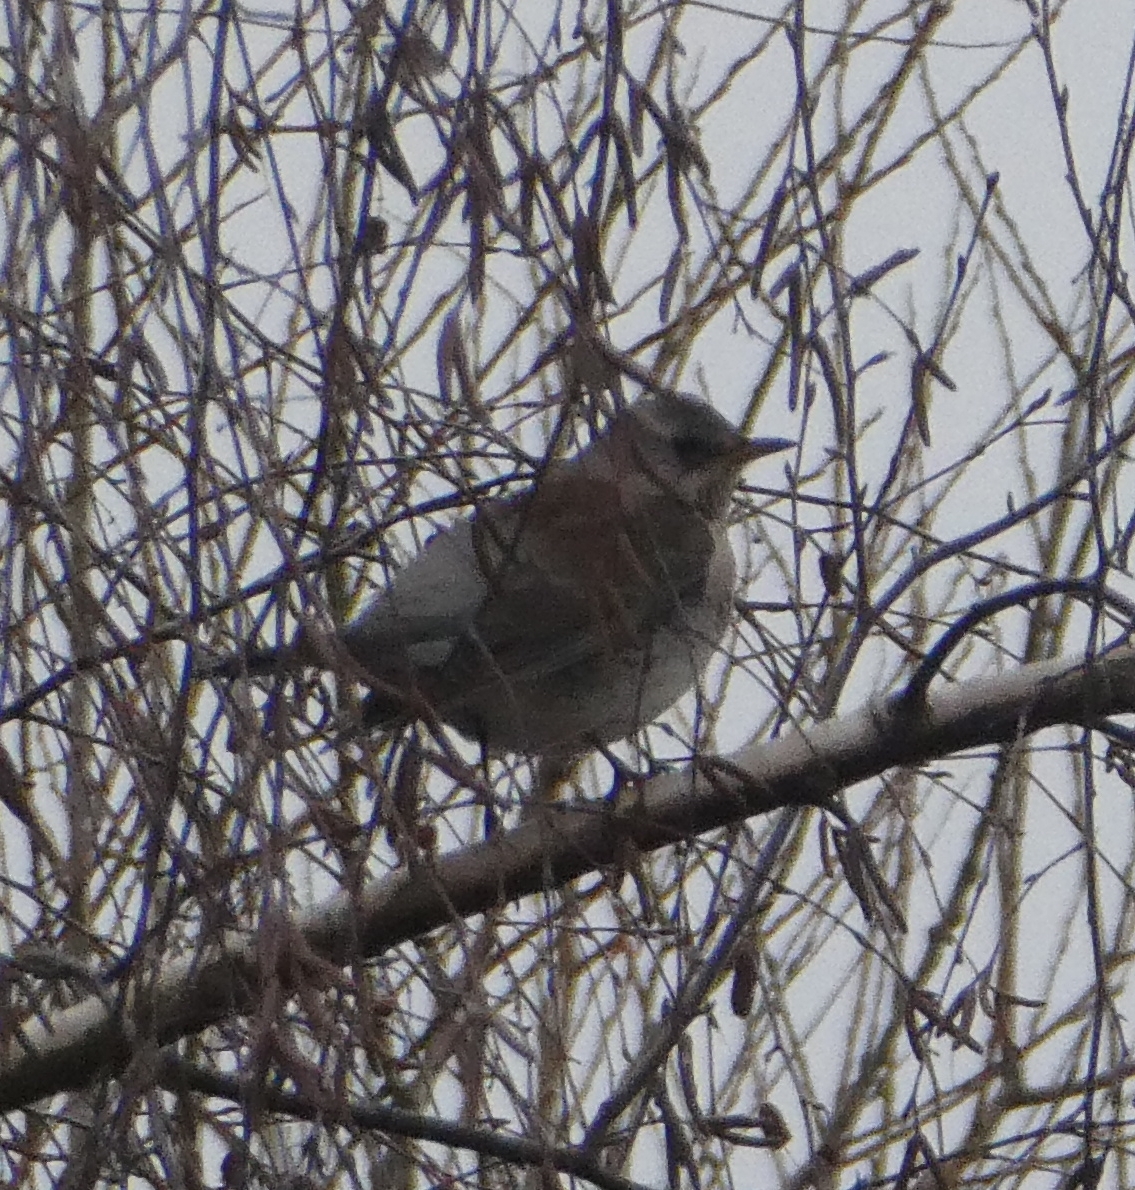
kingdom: Animalia
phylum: Chordata
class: Aves
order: Passeriformes
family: Turdidae
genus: Turdus
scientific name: Turdus pilaris
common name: Fieldfare
